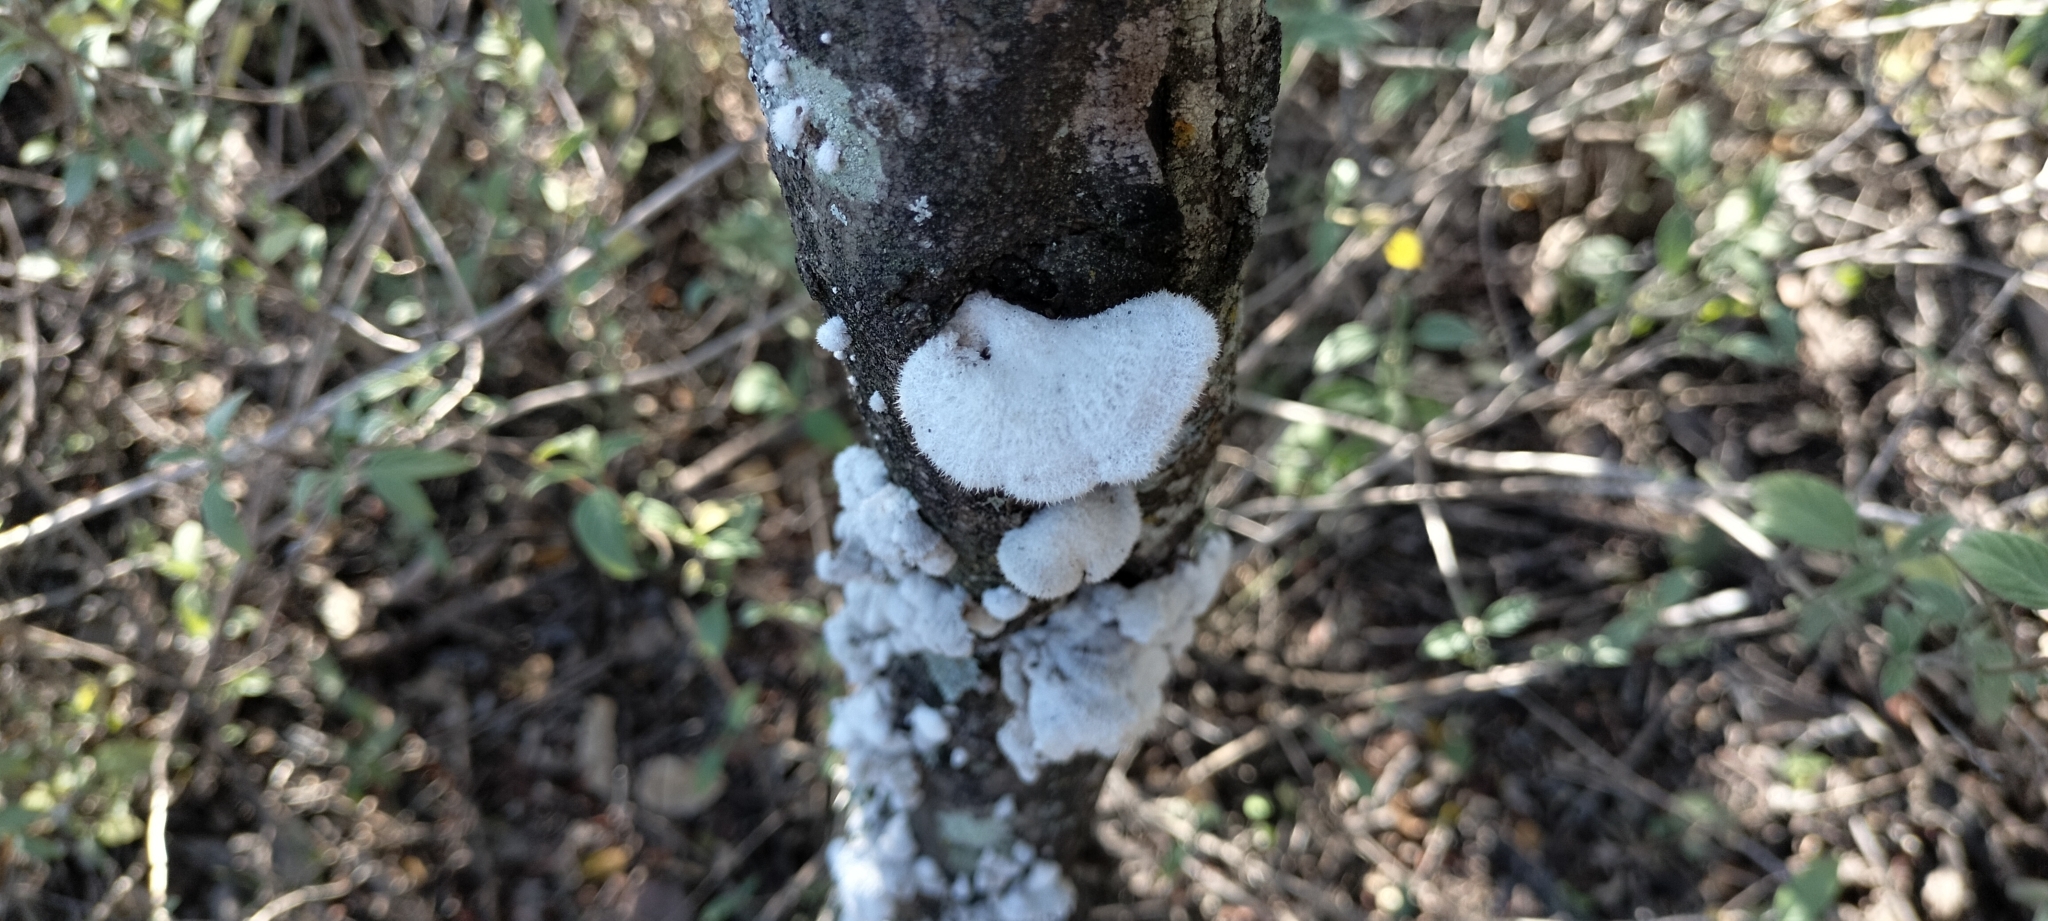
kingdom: Fungi
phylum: Basidiomycota
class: Agaricomycetes
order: Agaricales
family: Schizophyllaceae
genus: Schizophyllum
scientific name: Schizophyllum commune
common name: Common porecrust
